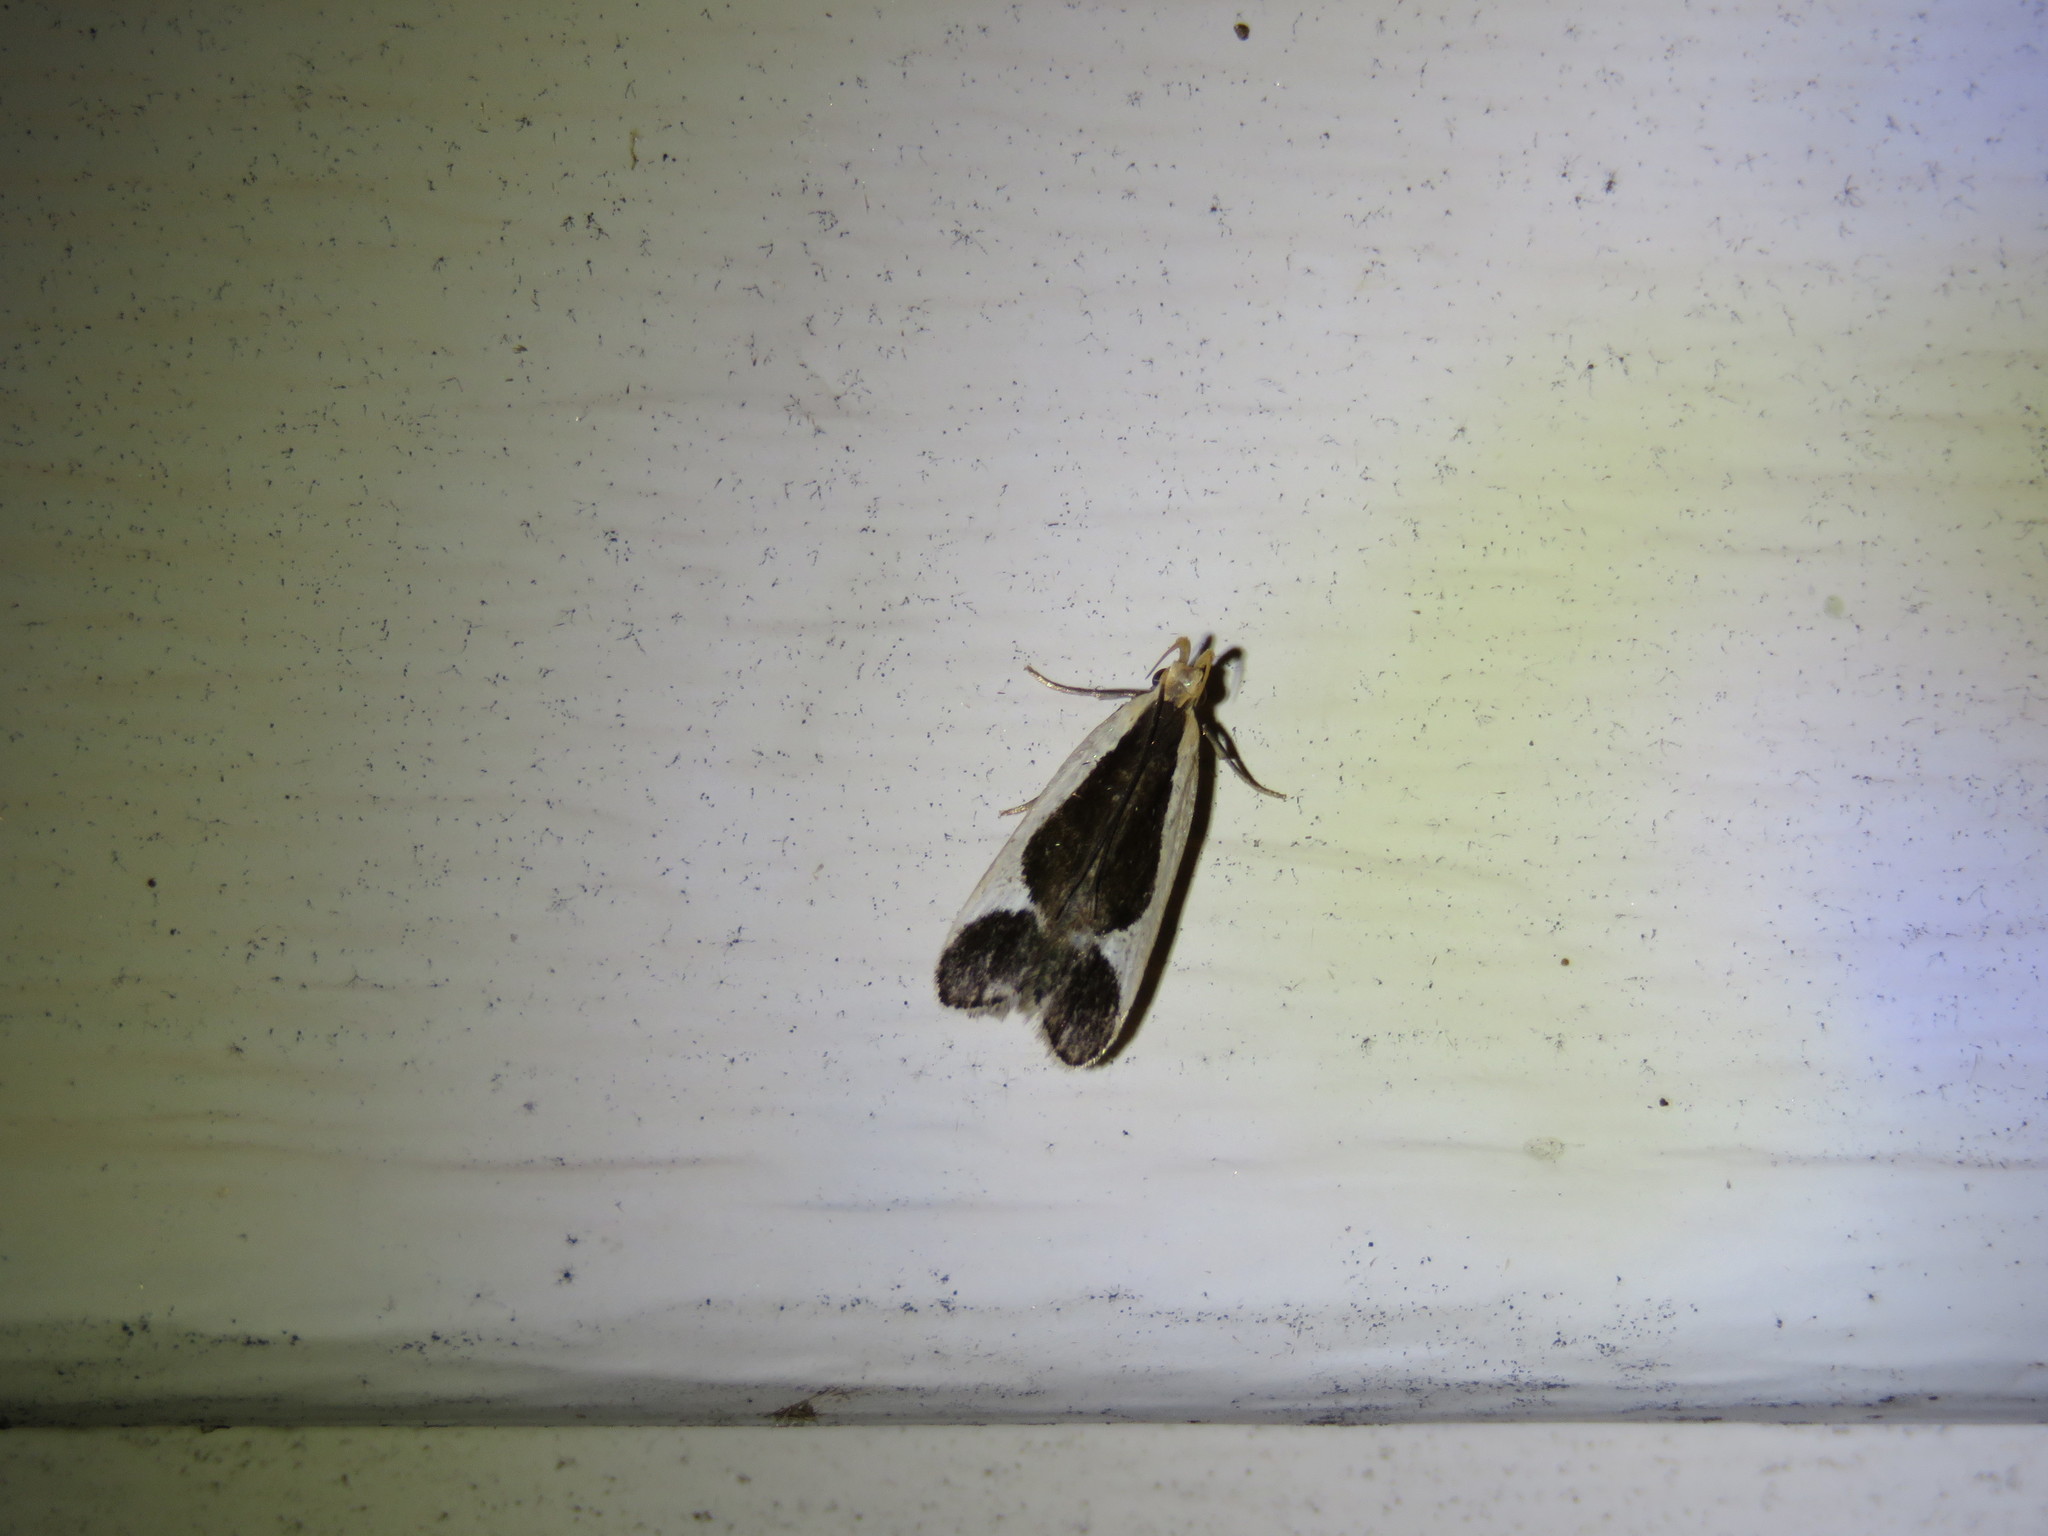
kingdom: Animalia
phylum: Arthropoda
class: Insecta
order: Lepidoptera
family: Gelechiidae
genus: Dichomeris
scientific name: Dichomeris flavocostella
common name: Cream-edged dichomeris moth
